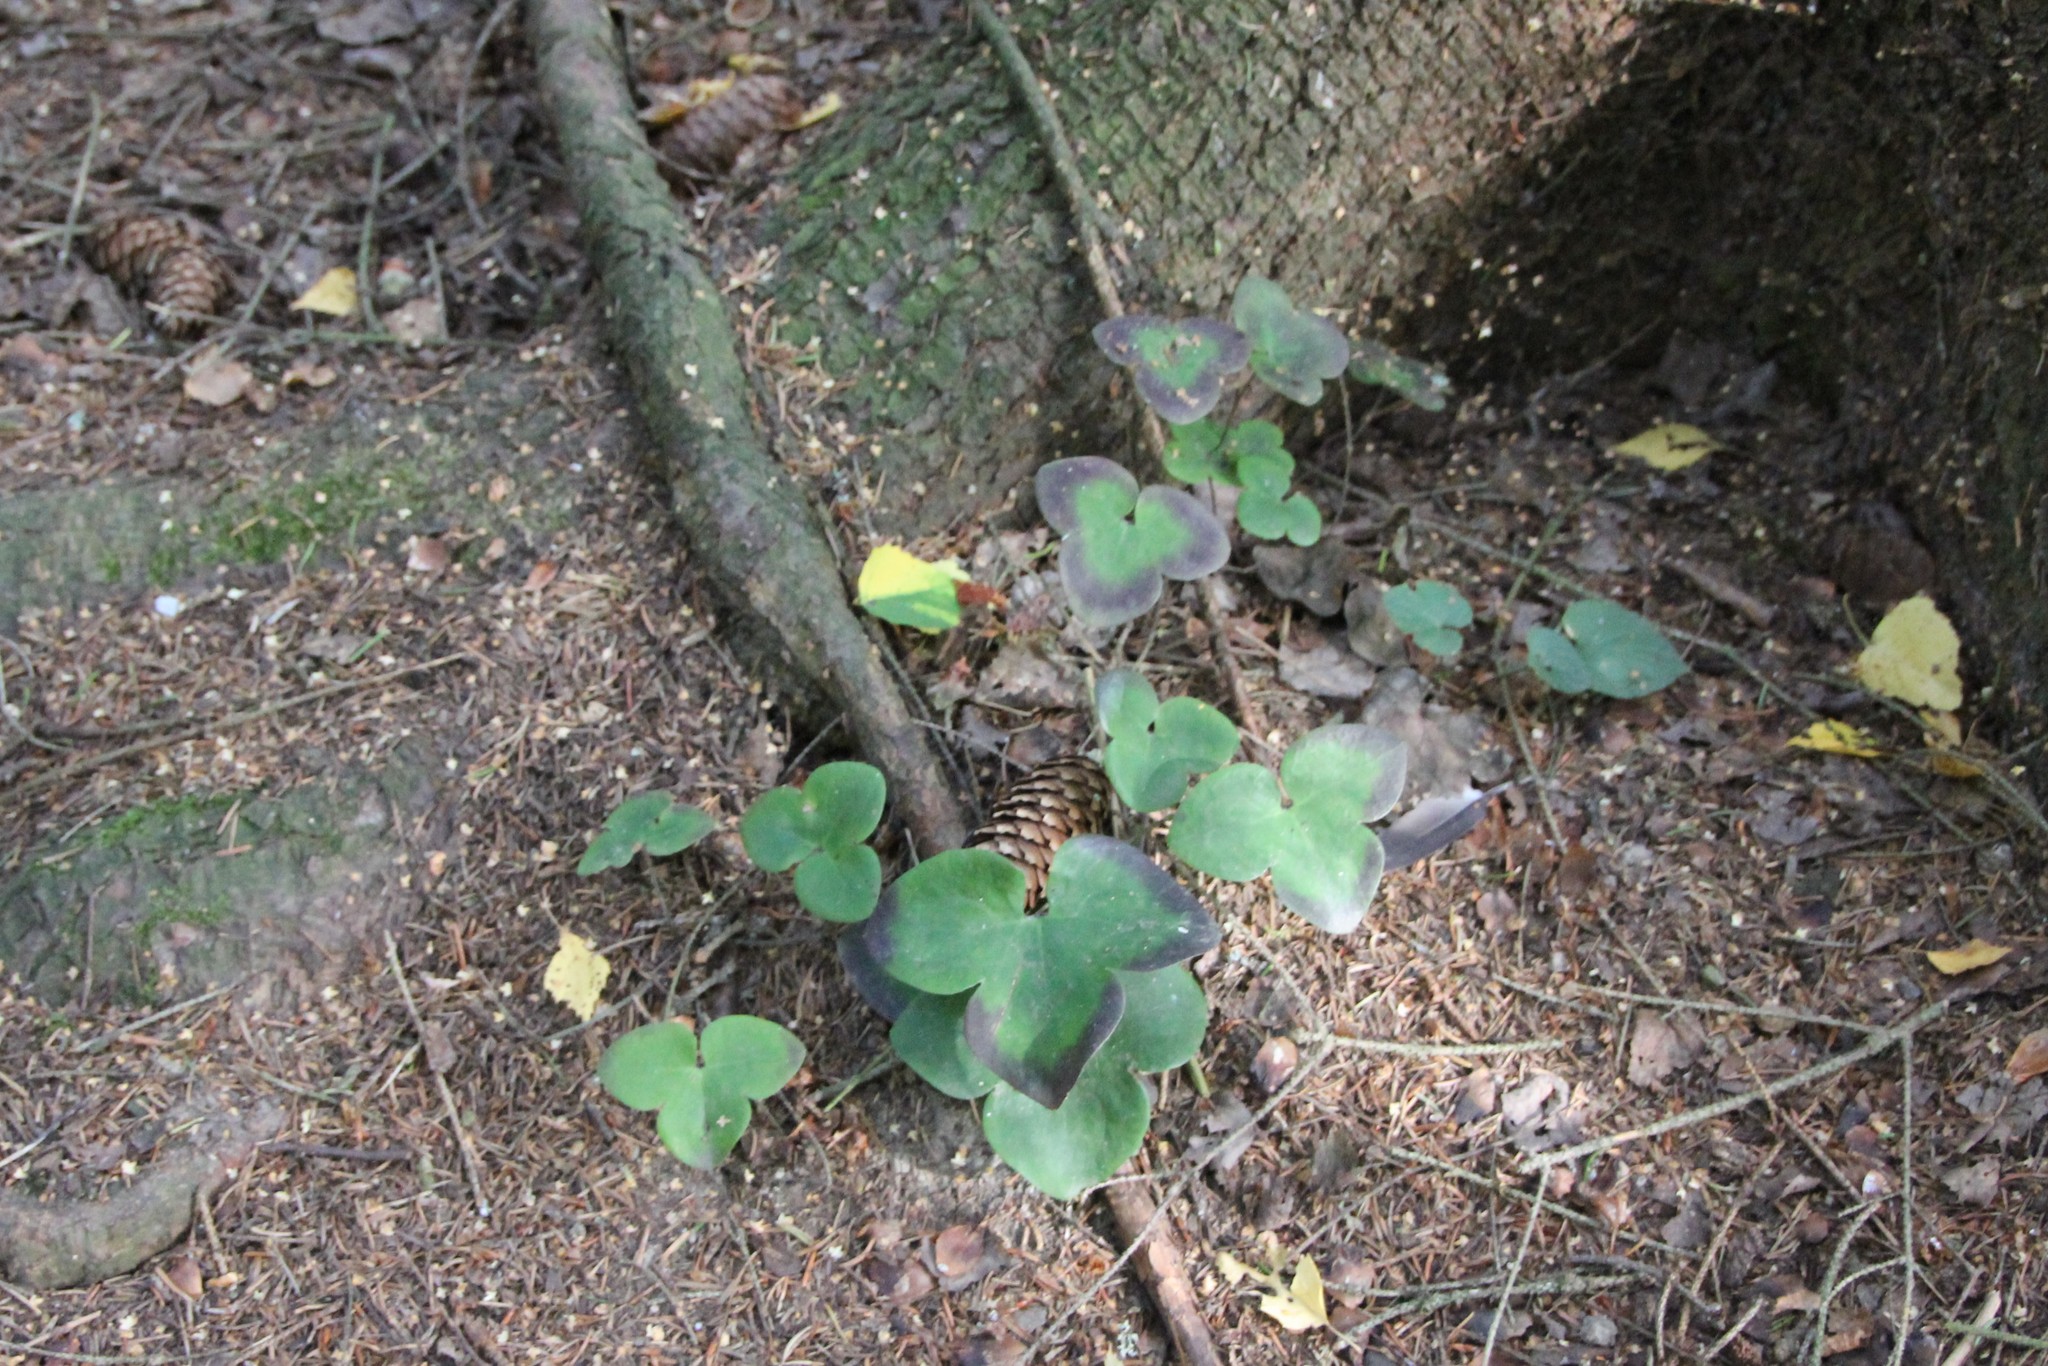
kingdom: Plantae
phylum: Tracheophyta
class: Magnoliopsida
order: Ranunculales
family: Ranunculaceae
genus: Hepatica
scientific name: Hepatica nobilis
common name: Liverleaf
